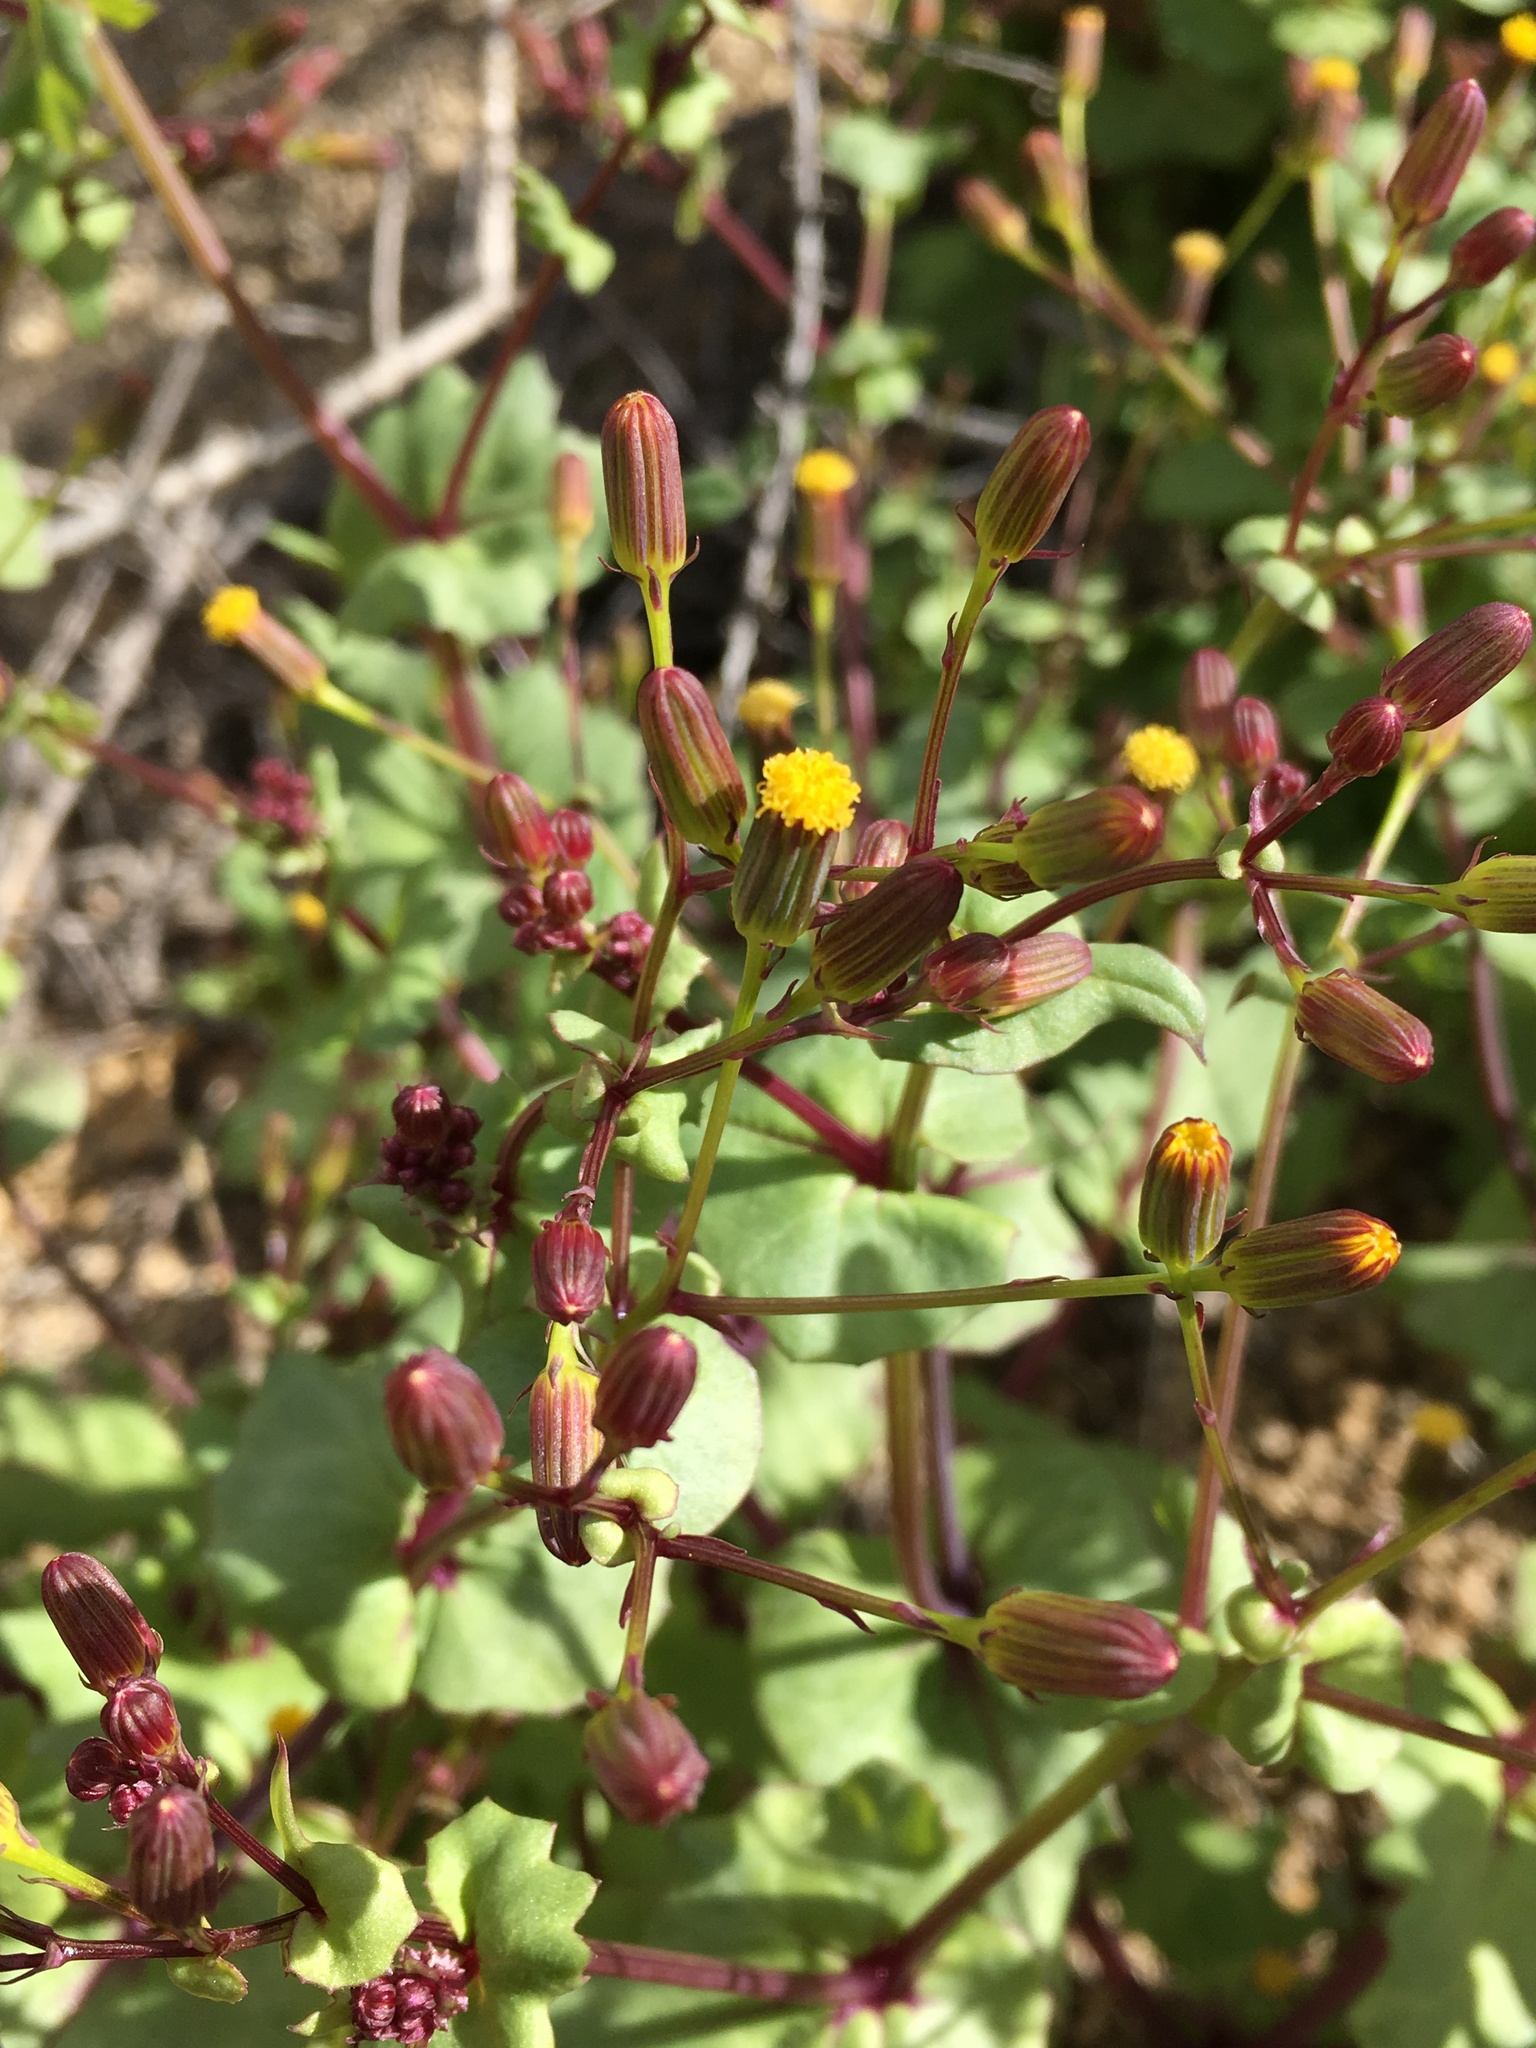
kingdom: Plantae
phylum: Tracheophyta
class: Magnoliopsida
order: Asterales
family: Asteraceae
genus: Senecio
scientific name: Senecio mohavensis
